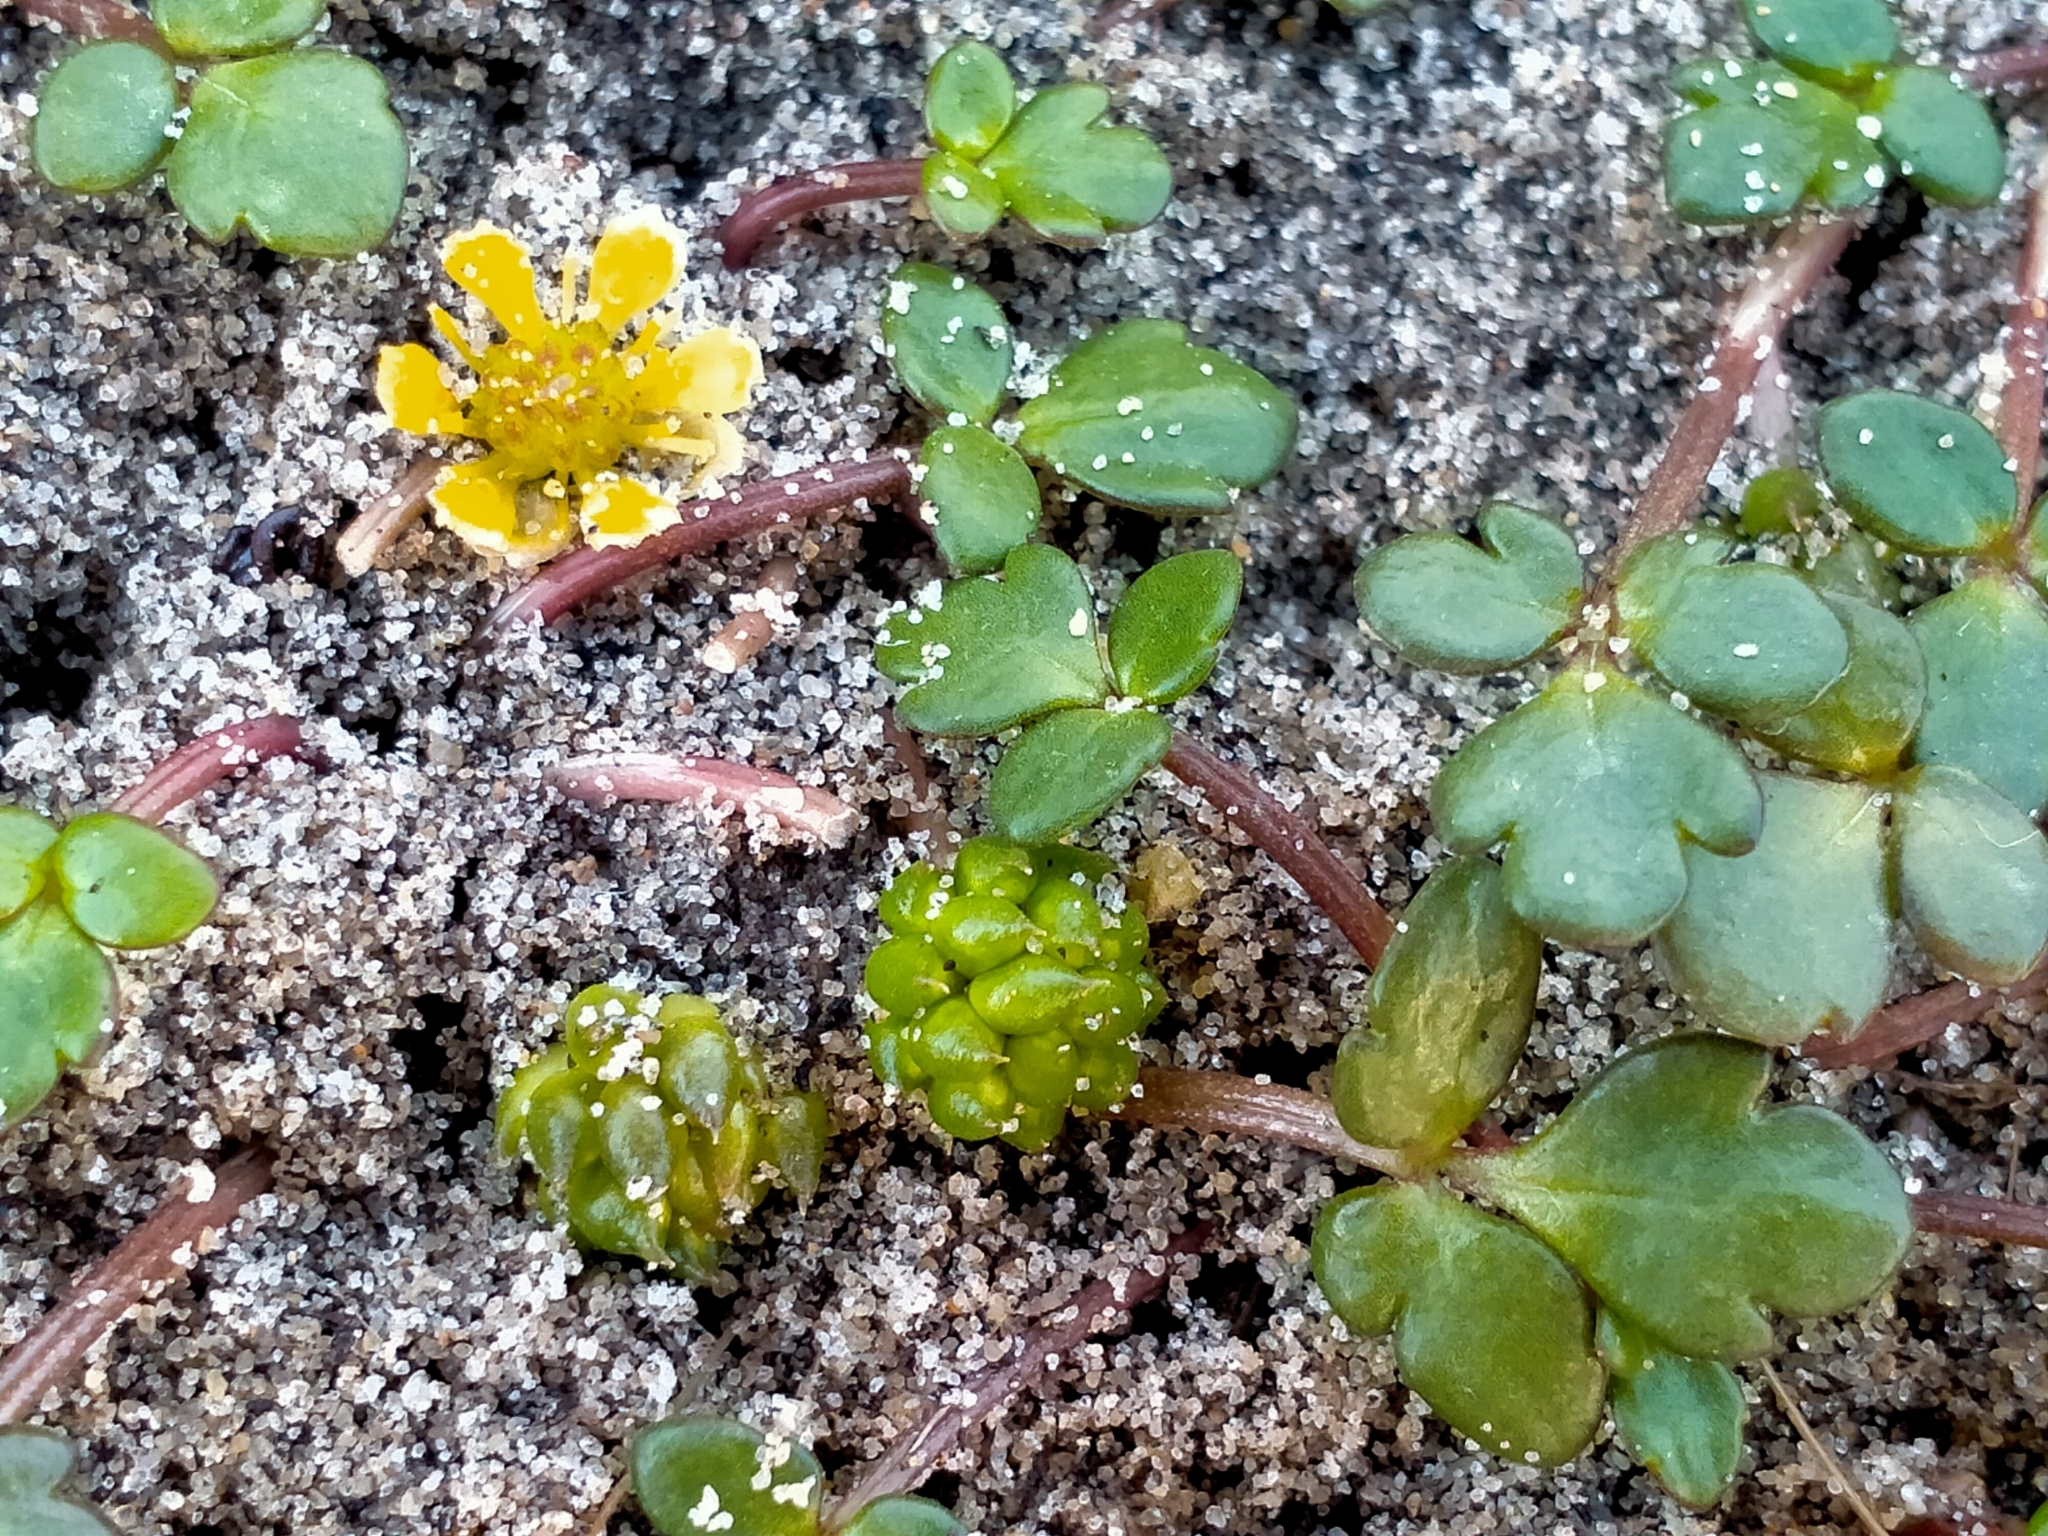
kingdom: Plantae
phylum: Tracheophyta
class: Magnoliopsida
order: Ranunculales
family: Ranunculaceae
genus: Ranunculus
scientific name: Ranunculus acaulis
